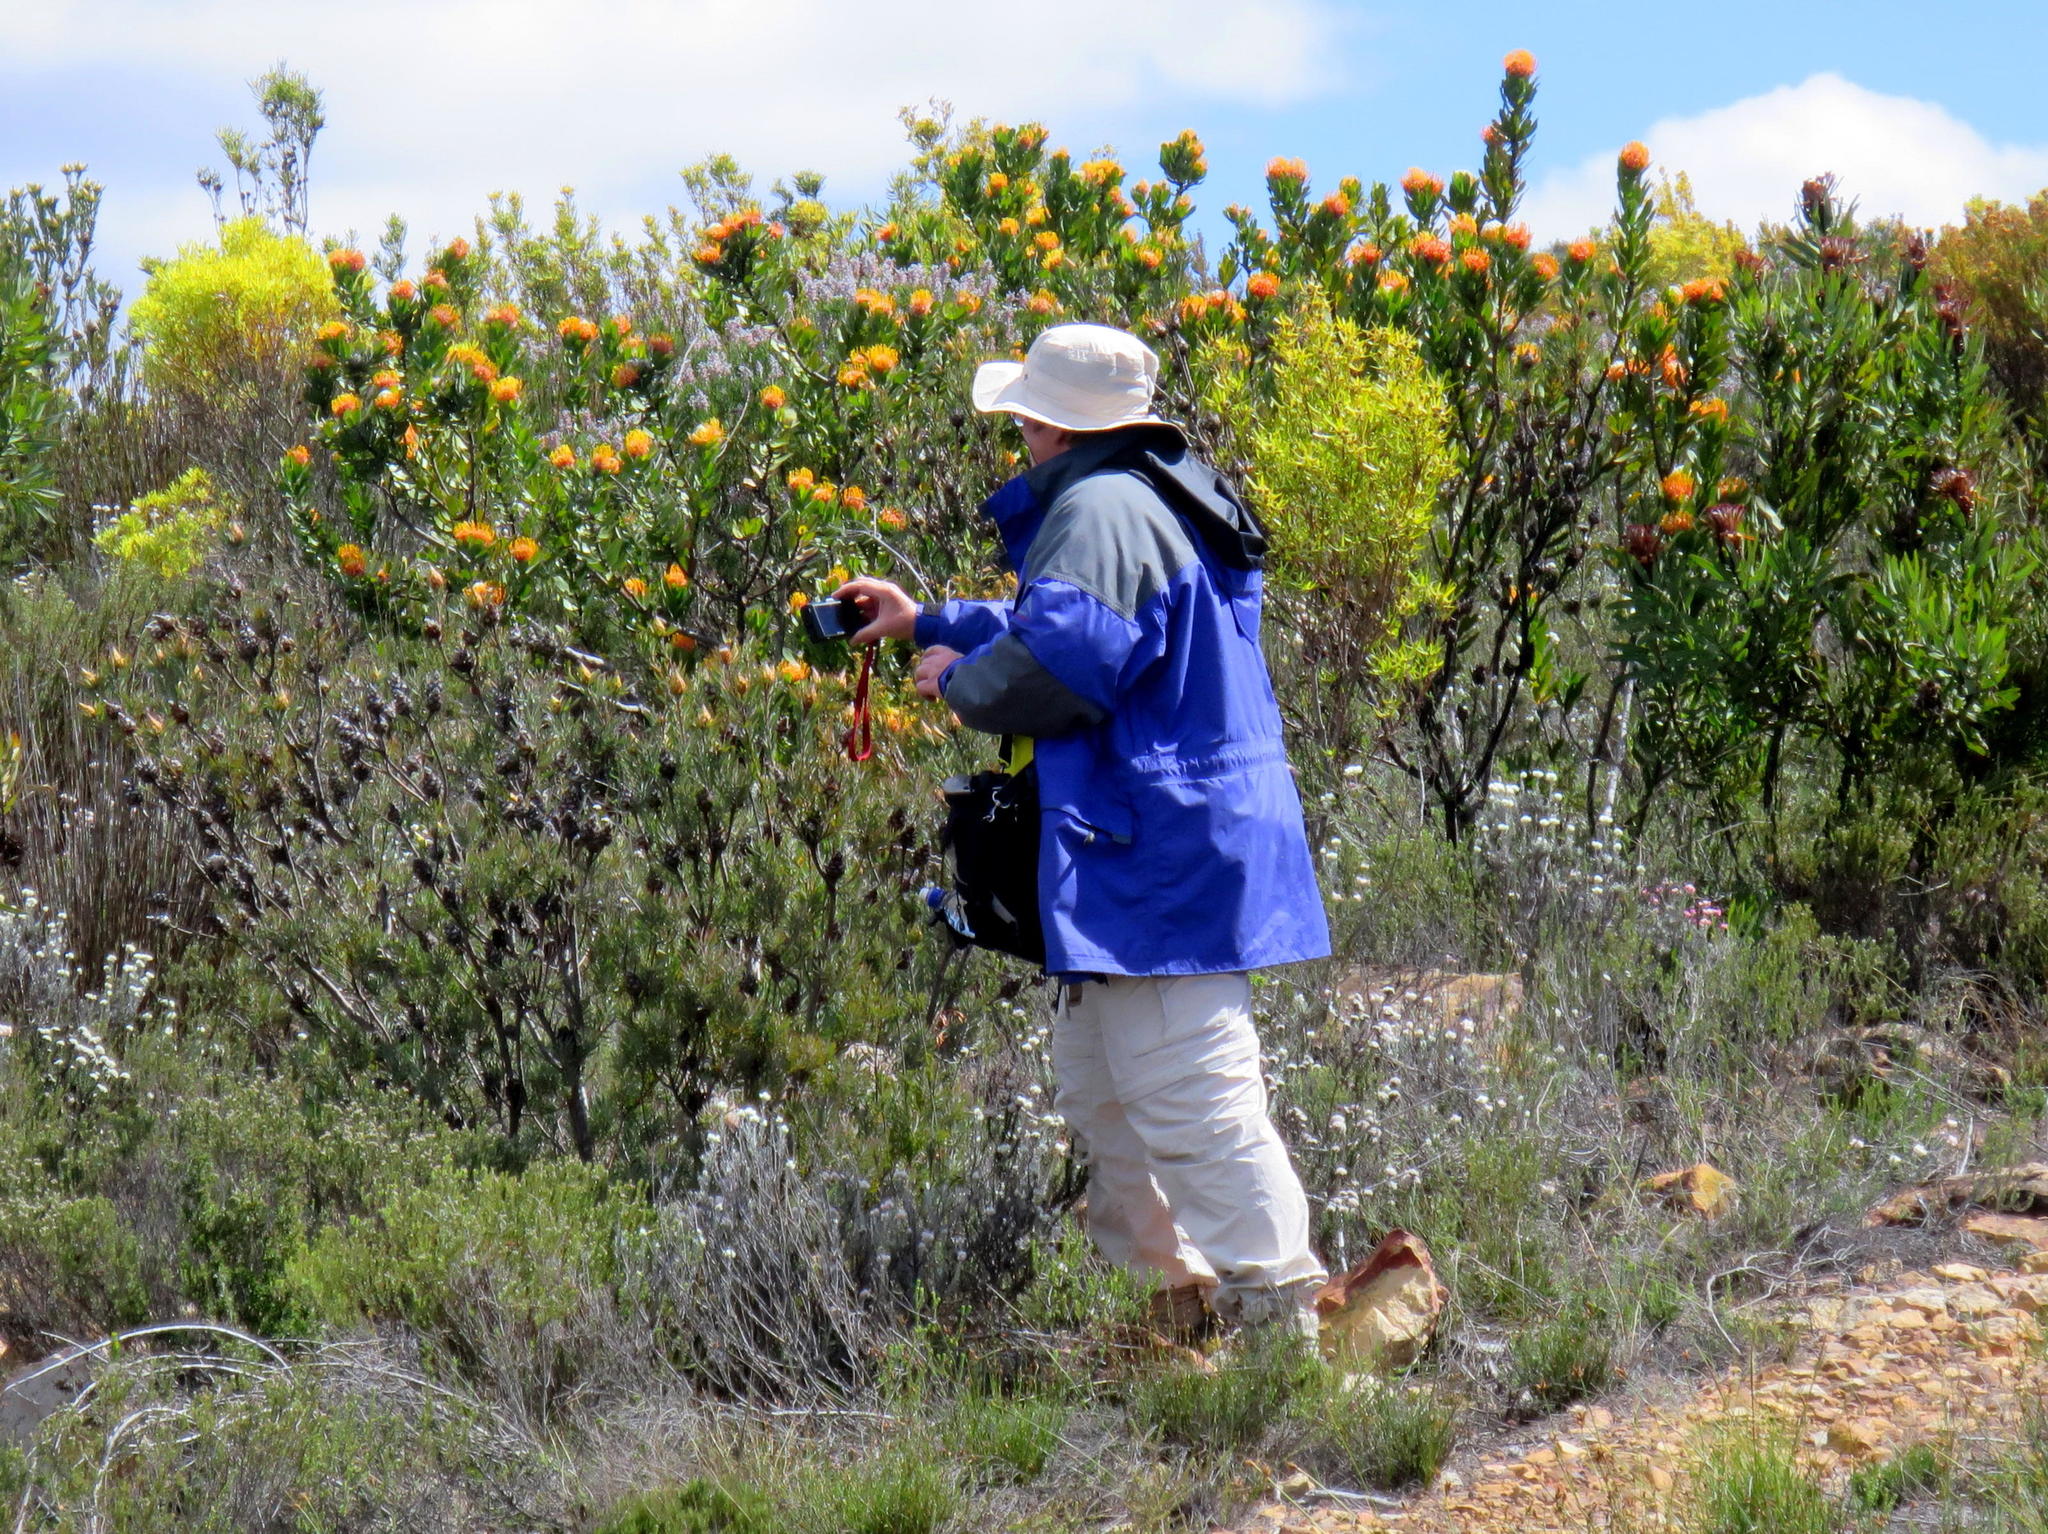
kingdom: Plantae
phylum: Tracheophyta
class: Magnoliopsida
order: Proteales
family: Proteaceae
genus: Leucospermum
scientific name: Leucospermum pluridens
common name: Robinson pincushion
